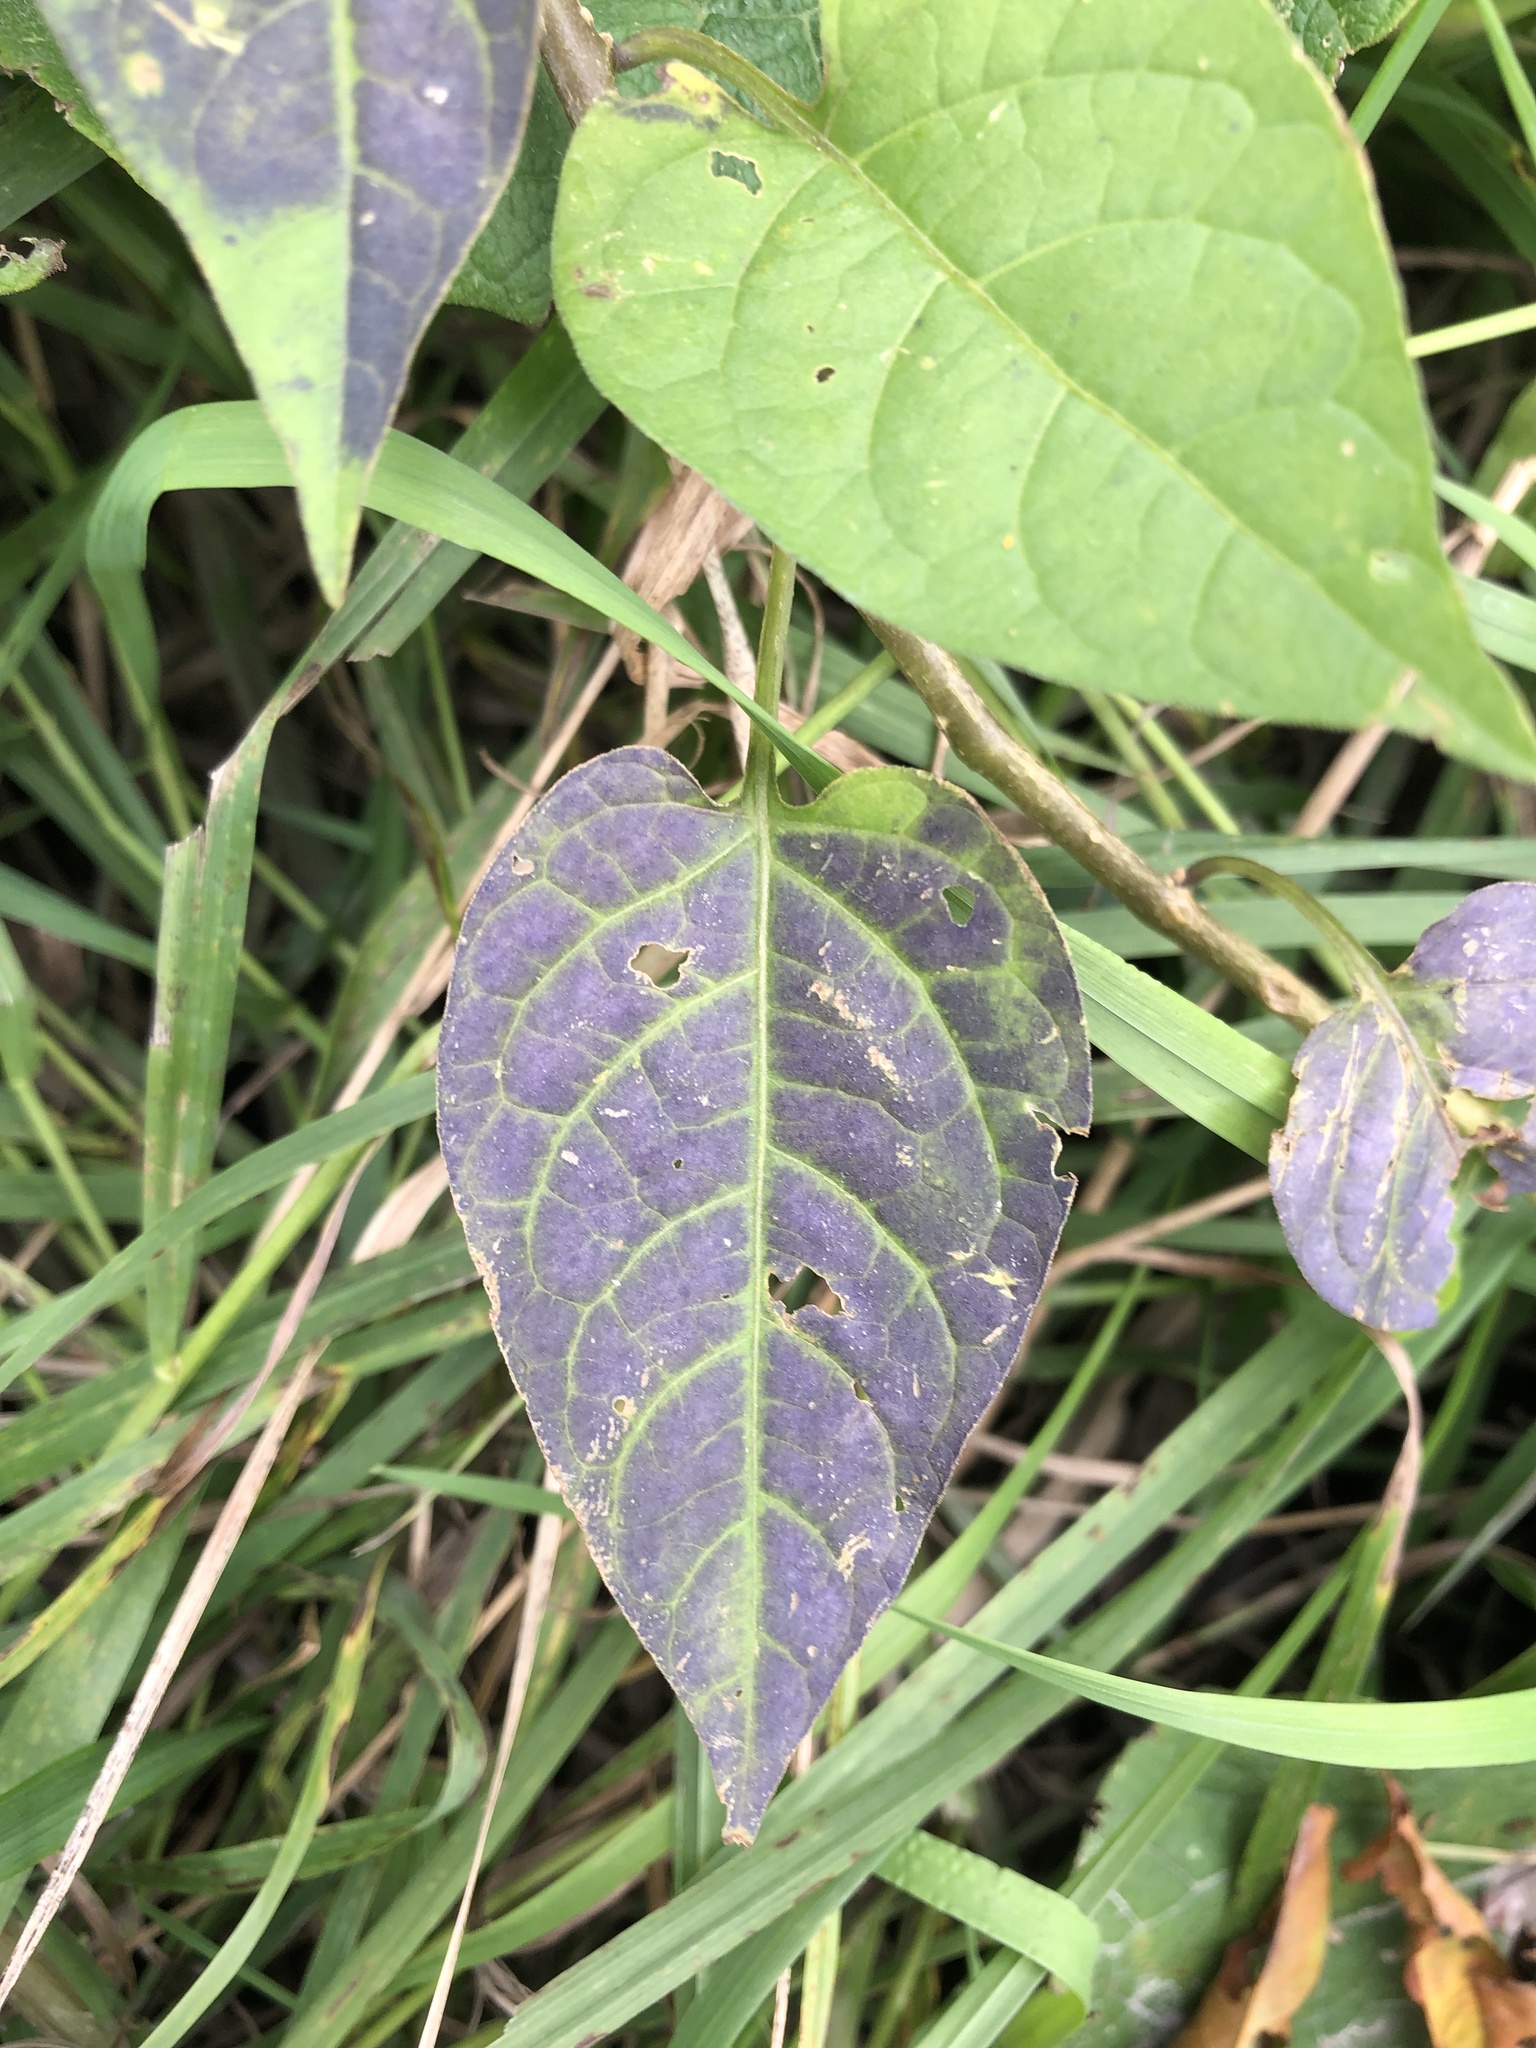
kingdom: Plantae
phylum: Tracheophyta
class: Magnoliopsida
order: Solanales
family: Solanaceae
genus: Solanum
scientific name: Solanum dulcamara
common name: Climbing nightshade
